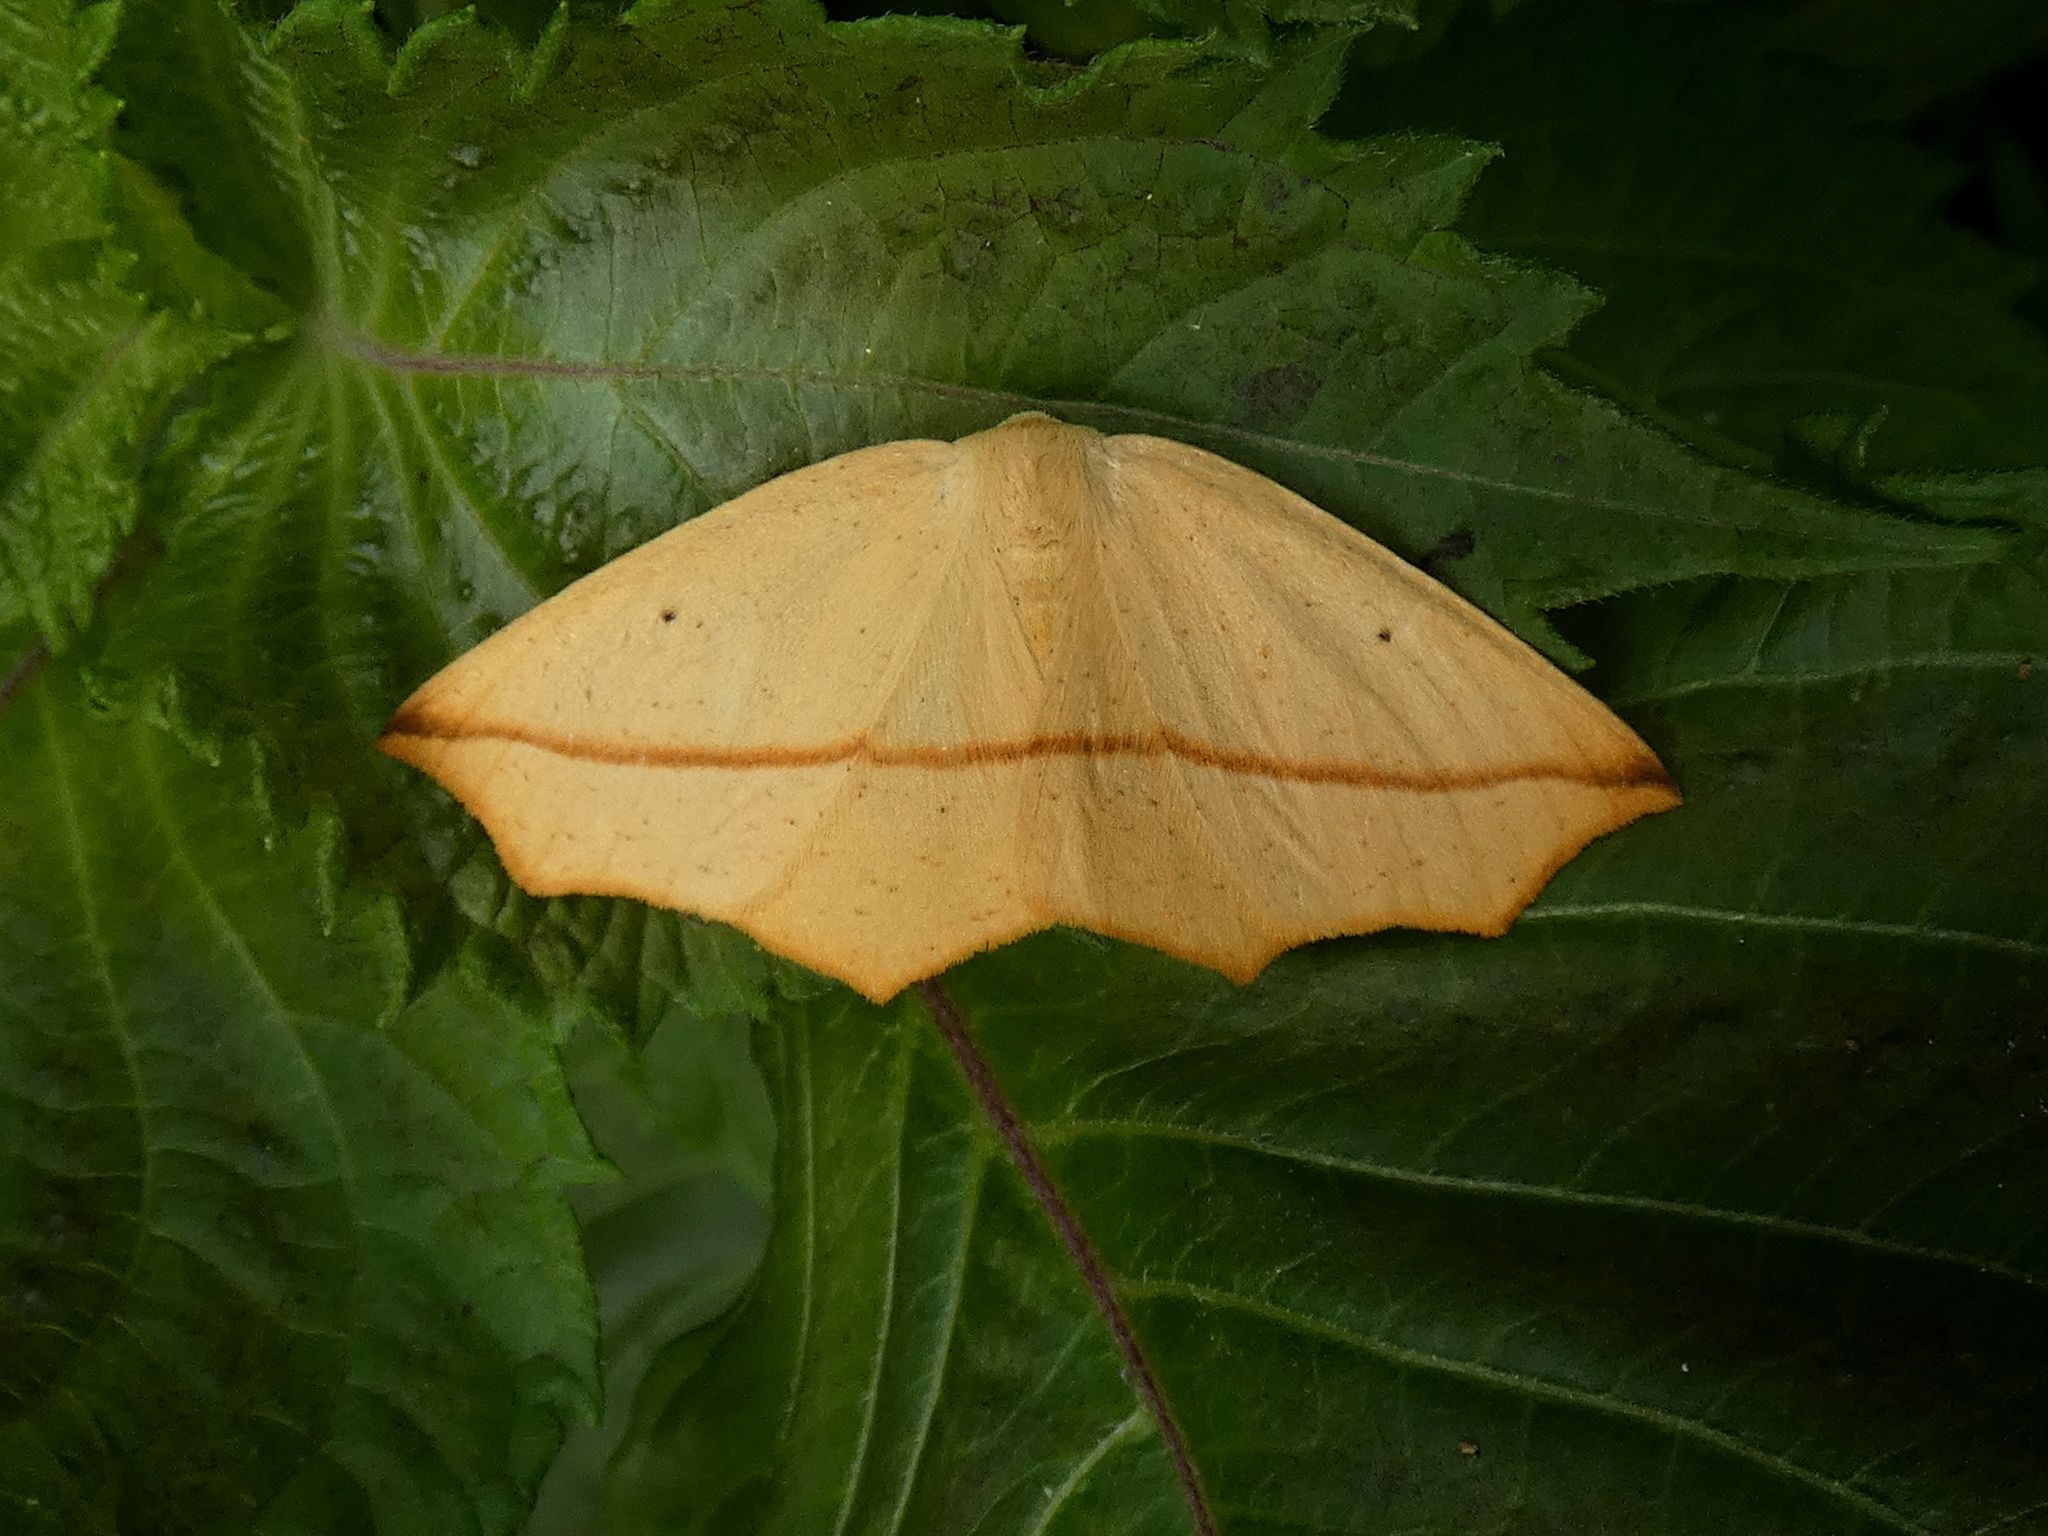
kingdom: Animalia
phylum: Arthropoda
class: Insecta
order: Lepidoptera
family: Geometridae
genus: Tetracis
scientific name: Tetracis crocallata
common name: Yellow slant-line
